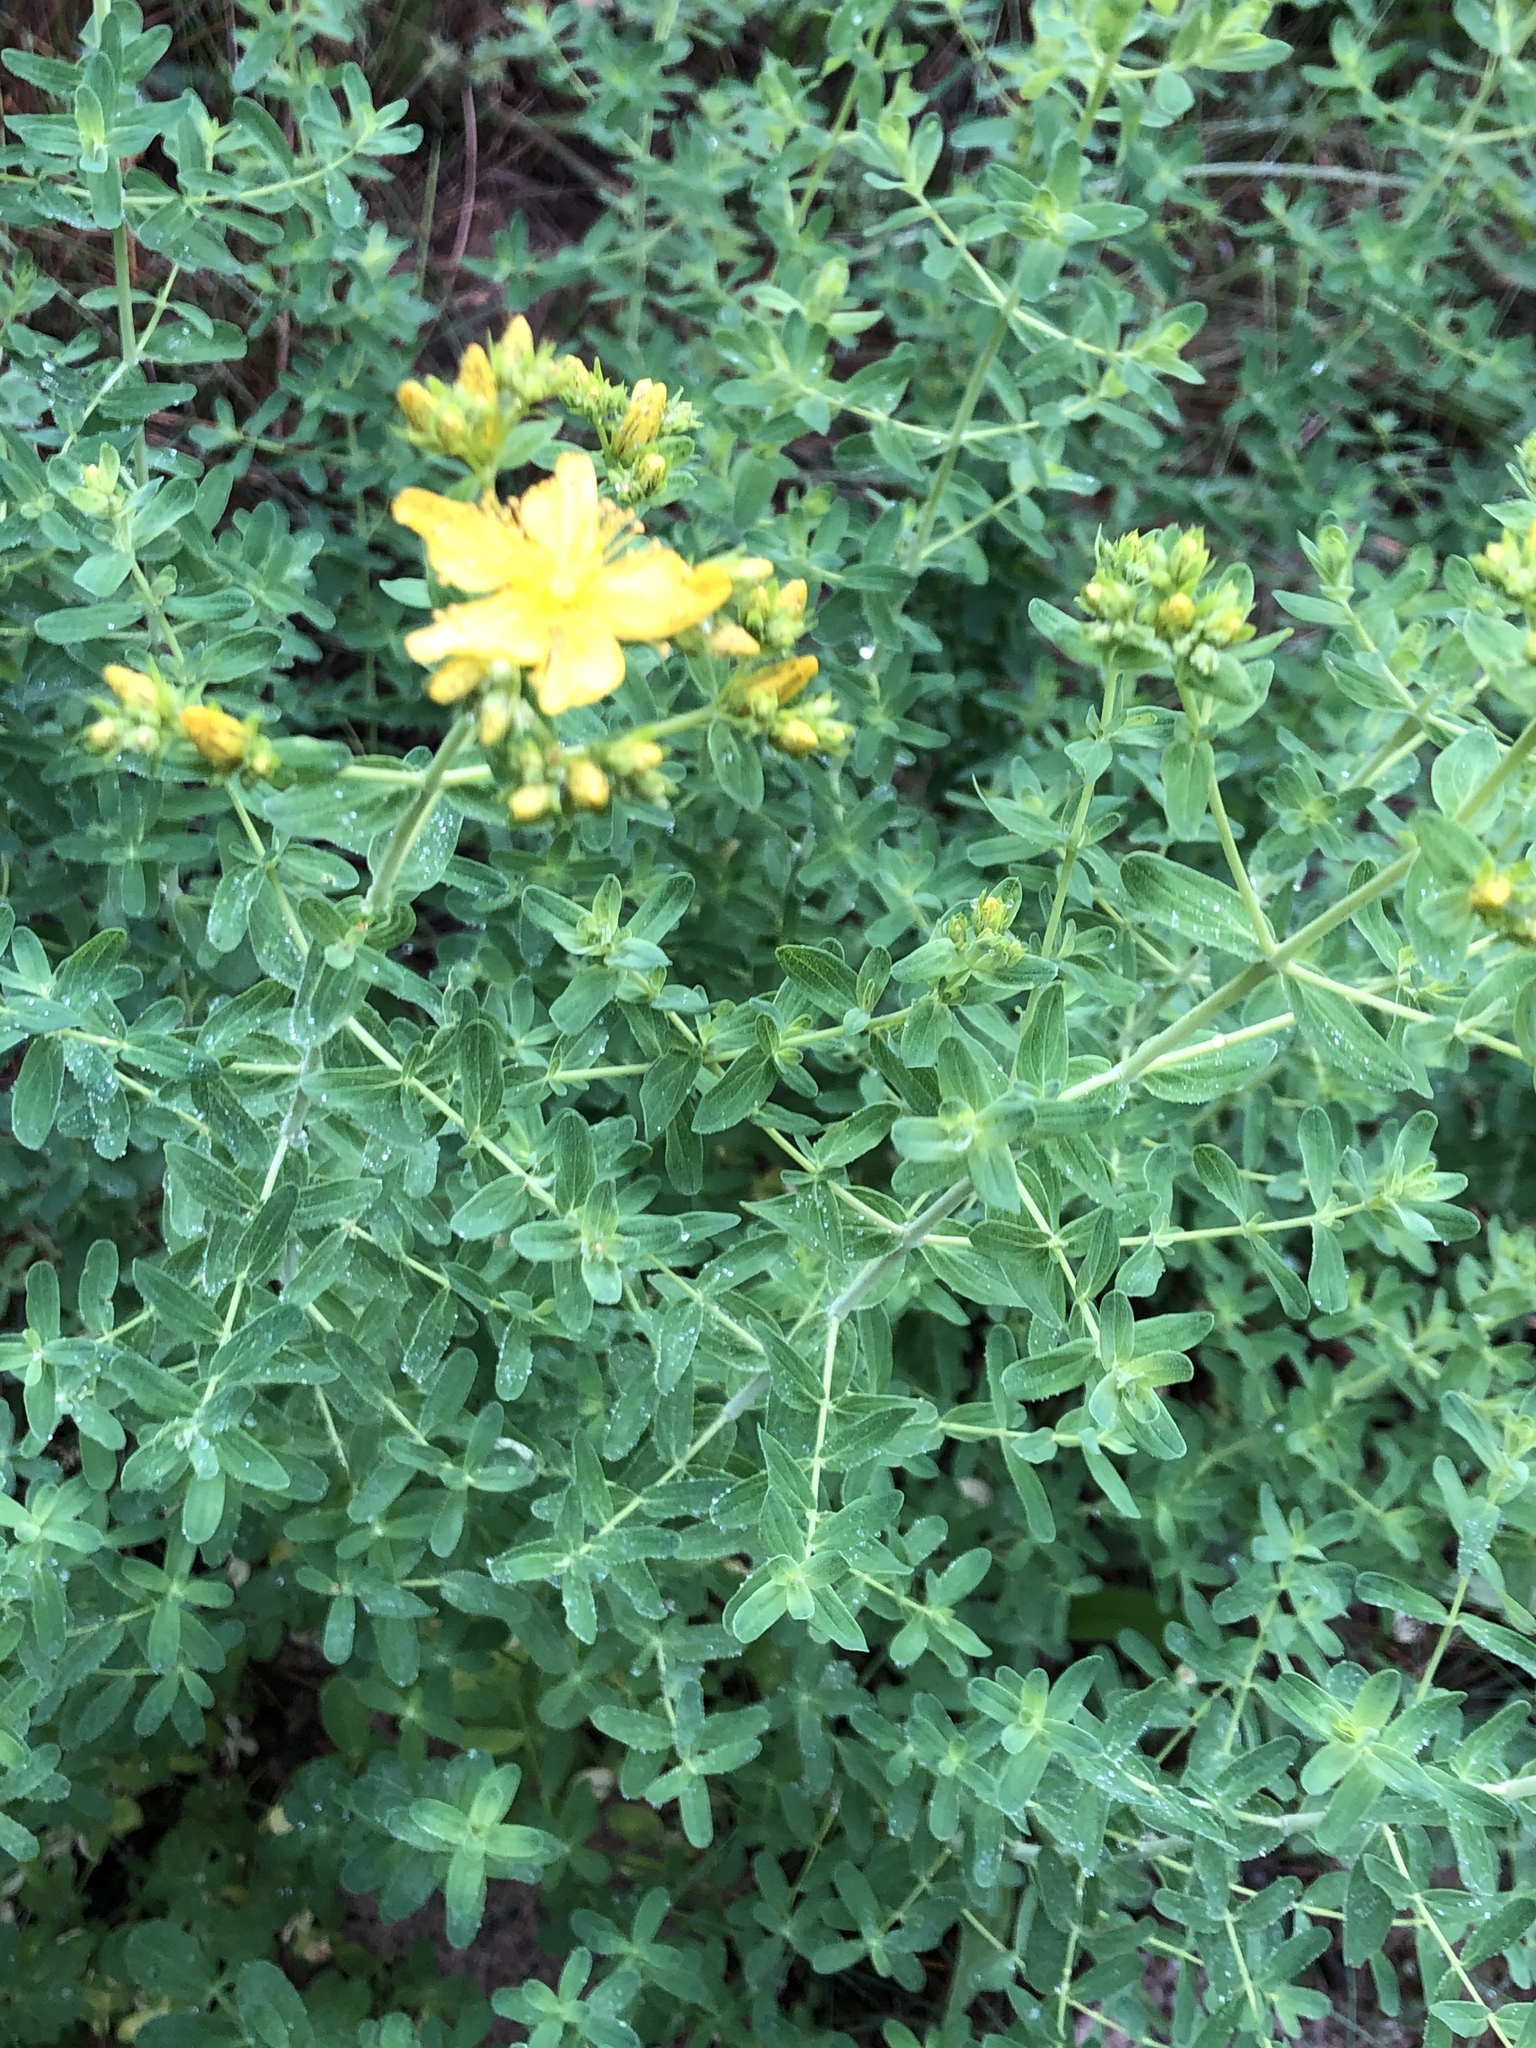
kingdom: Plantae
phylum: Tracheophyta
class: Magnoliopsida
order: Malpighiales
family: Hypericaceae
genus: Hypericum
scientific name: Hypericum perforatum
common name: Common st. johnswort
